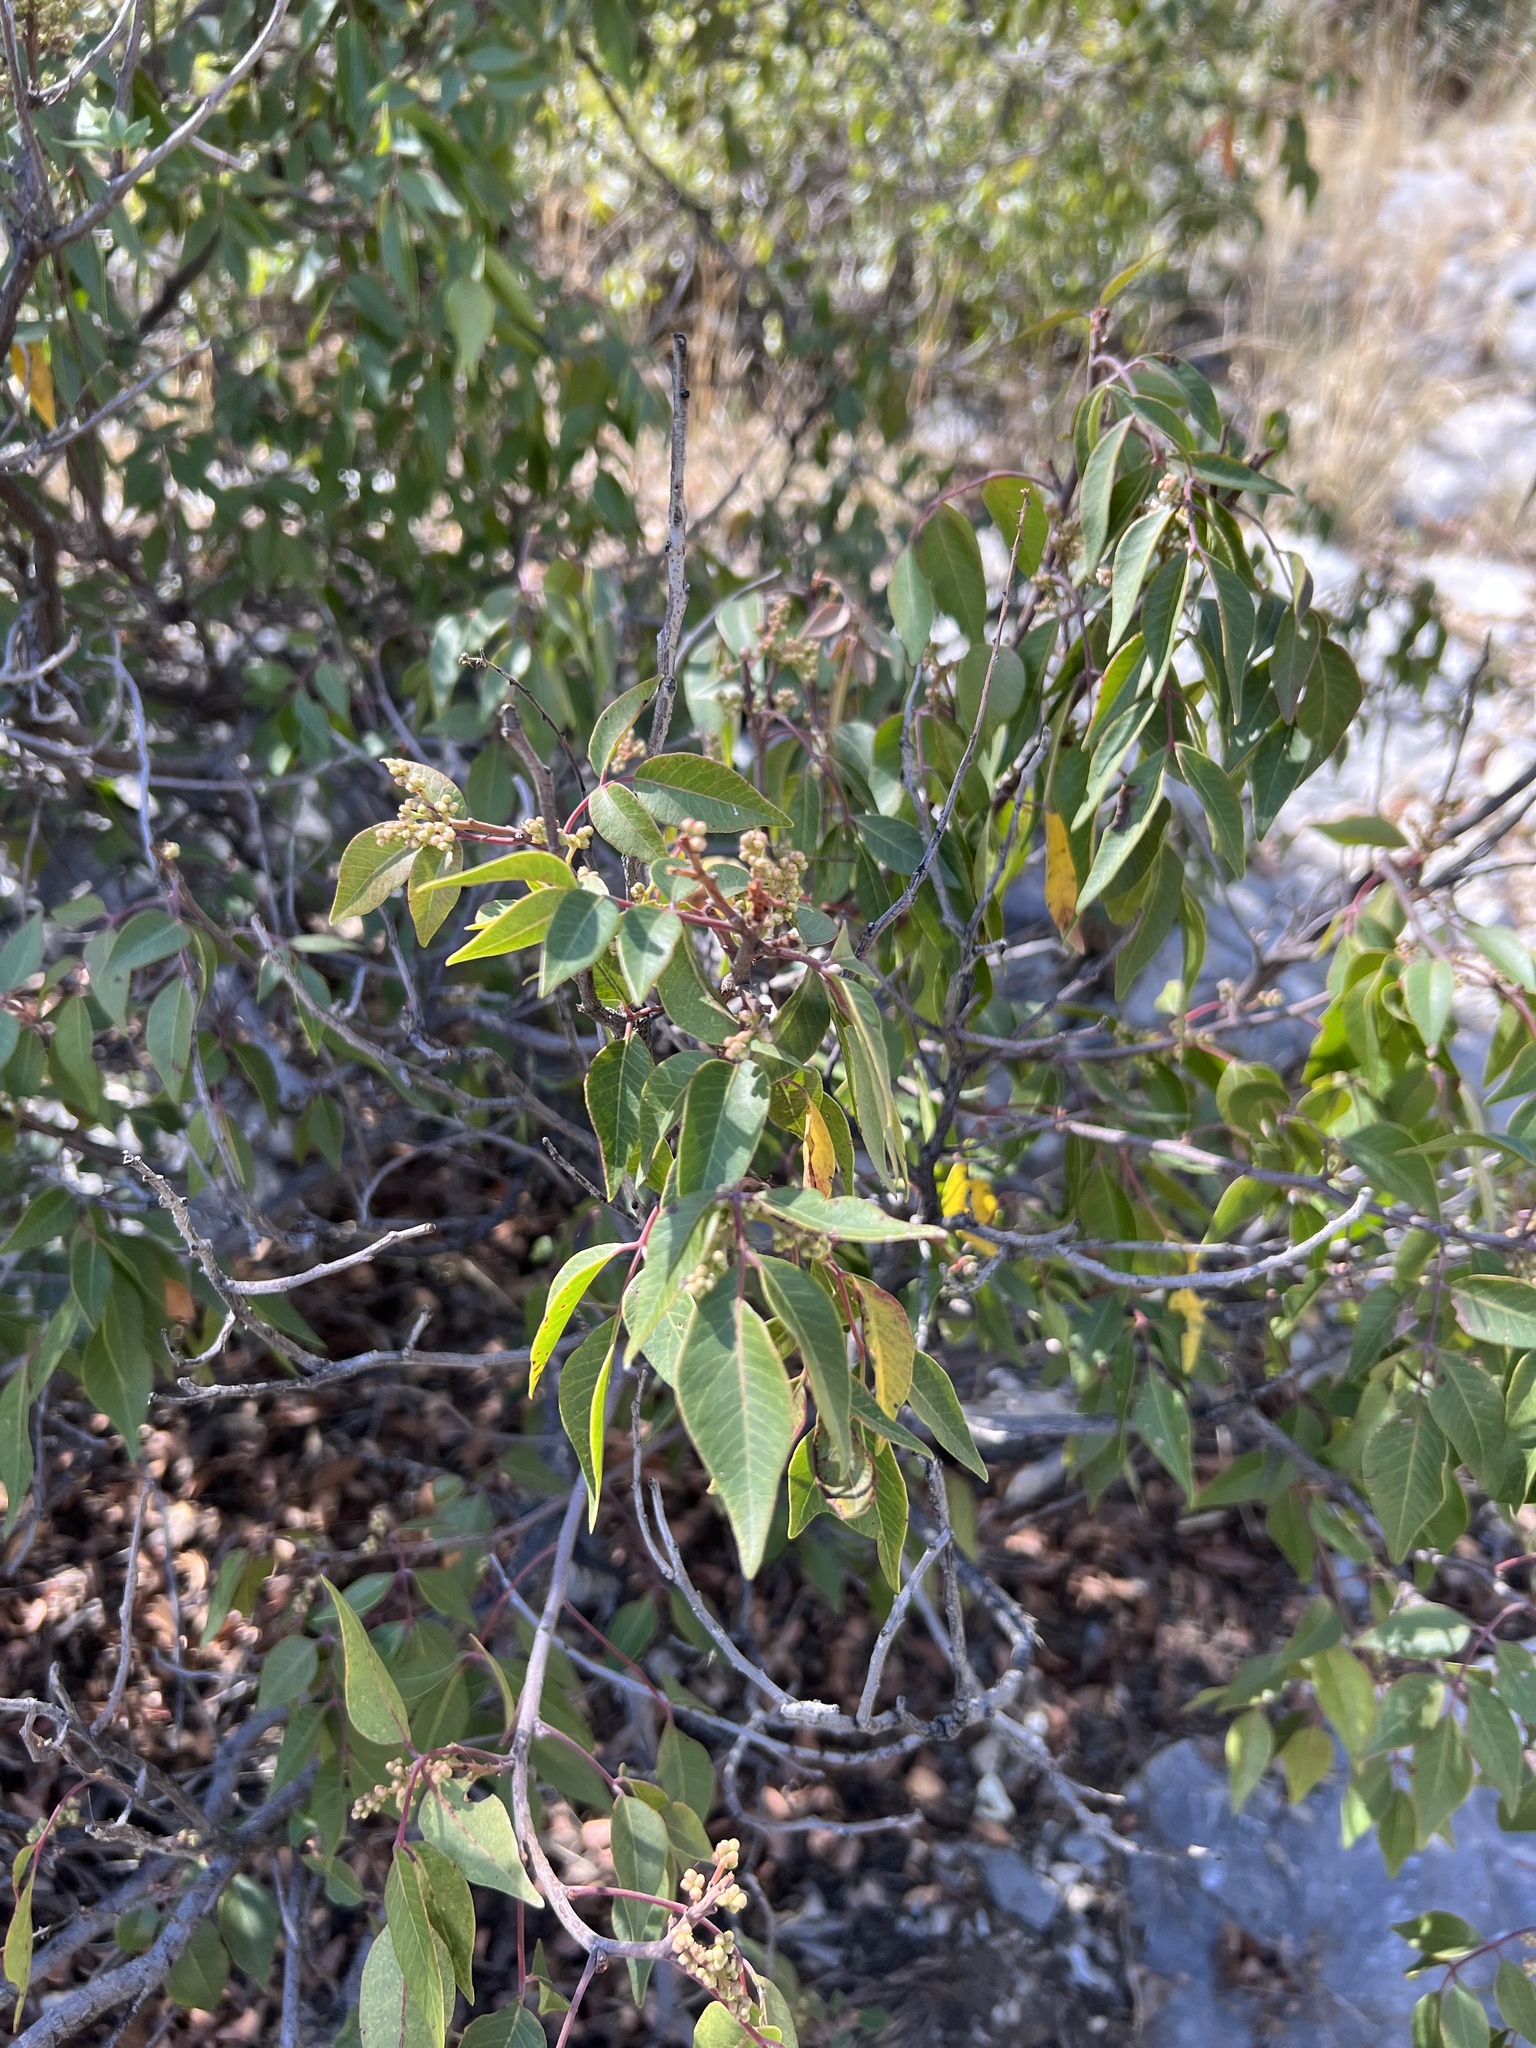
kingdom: Plantae
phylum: Tracheophyta
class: Magnoliopsida
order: Sapindales
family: Anacardiaceae
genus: Rhus
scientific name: Rhus virens
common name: Evergreen sumac
